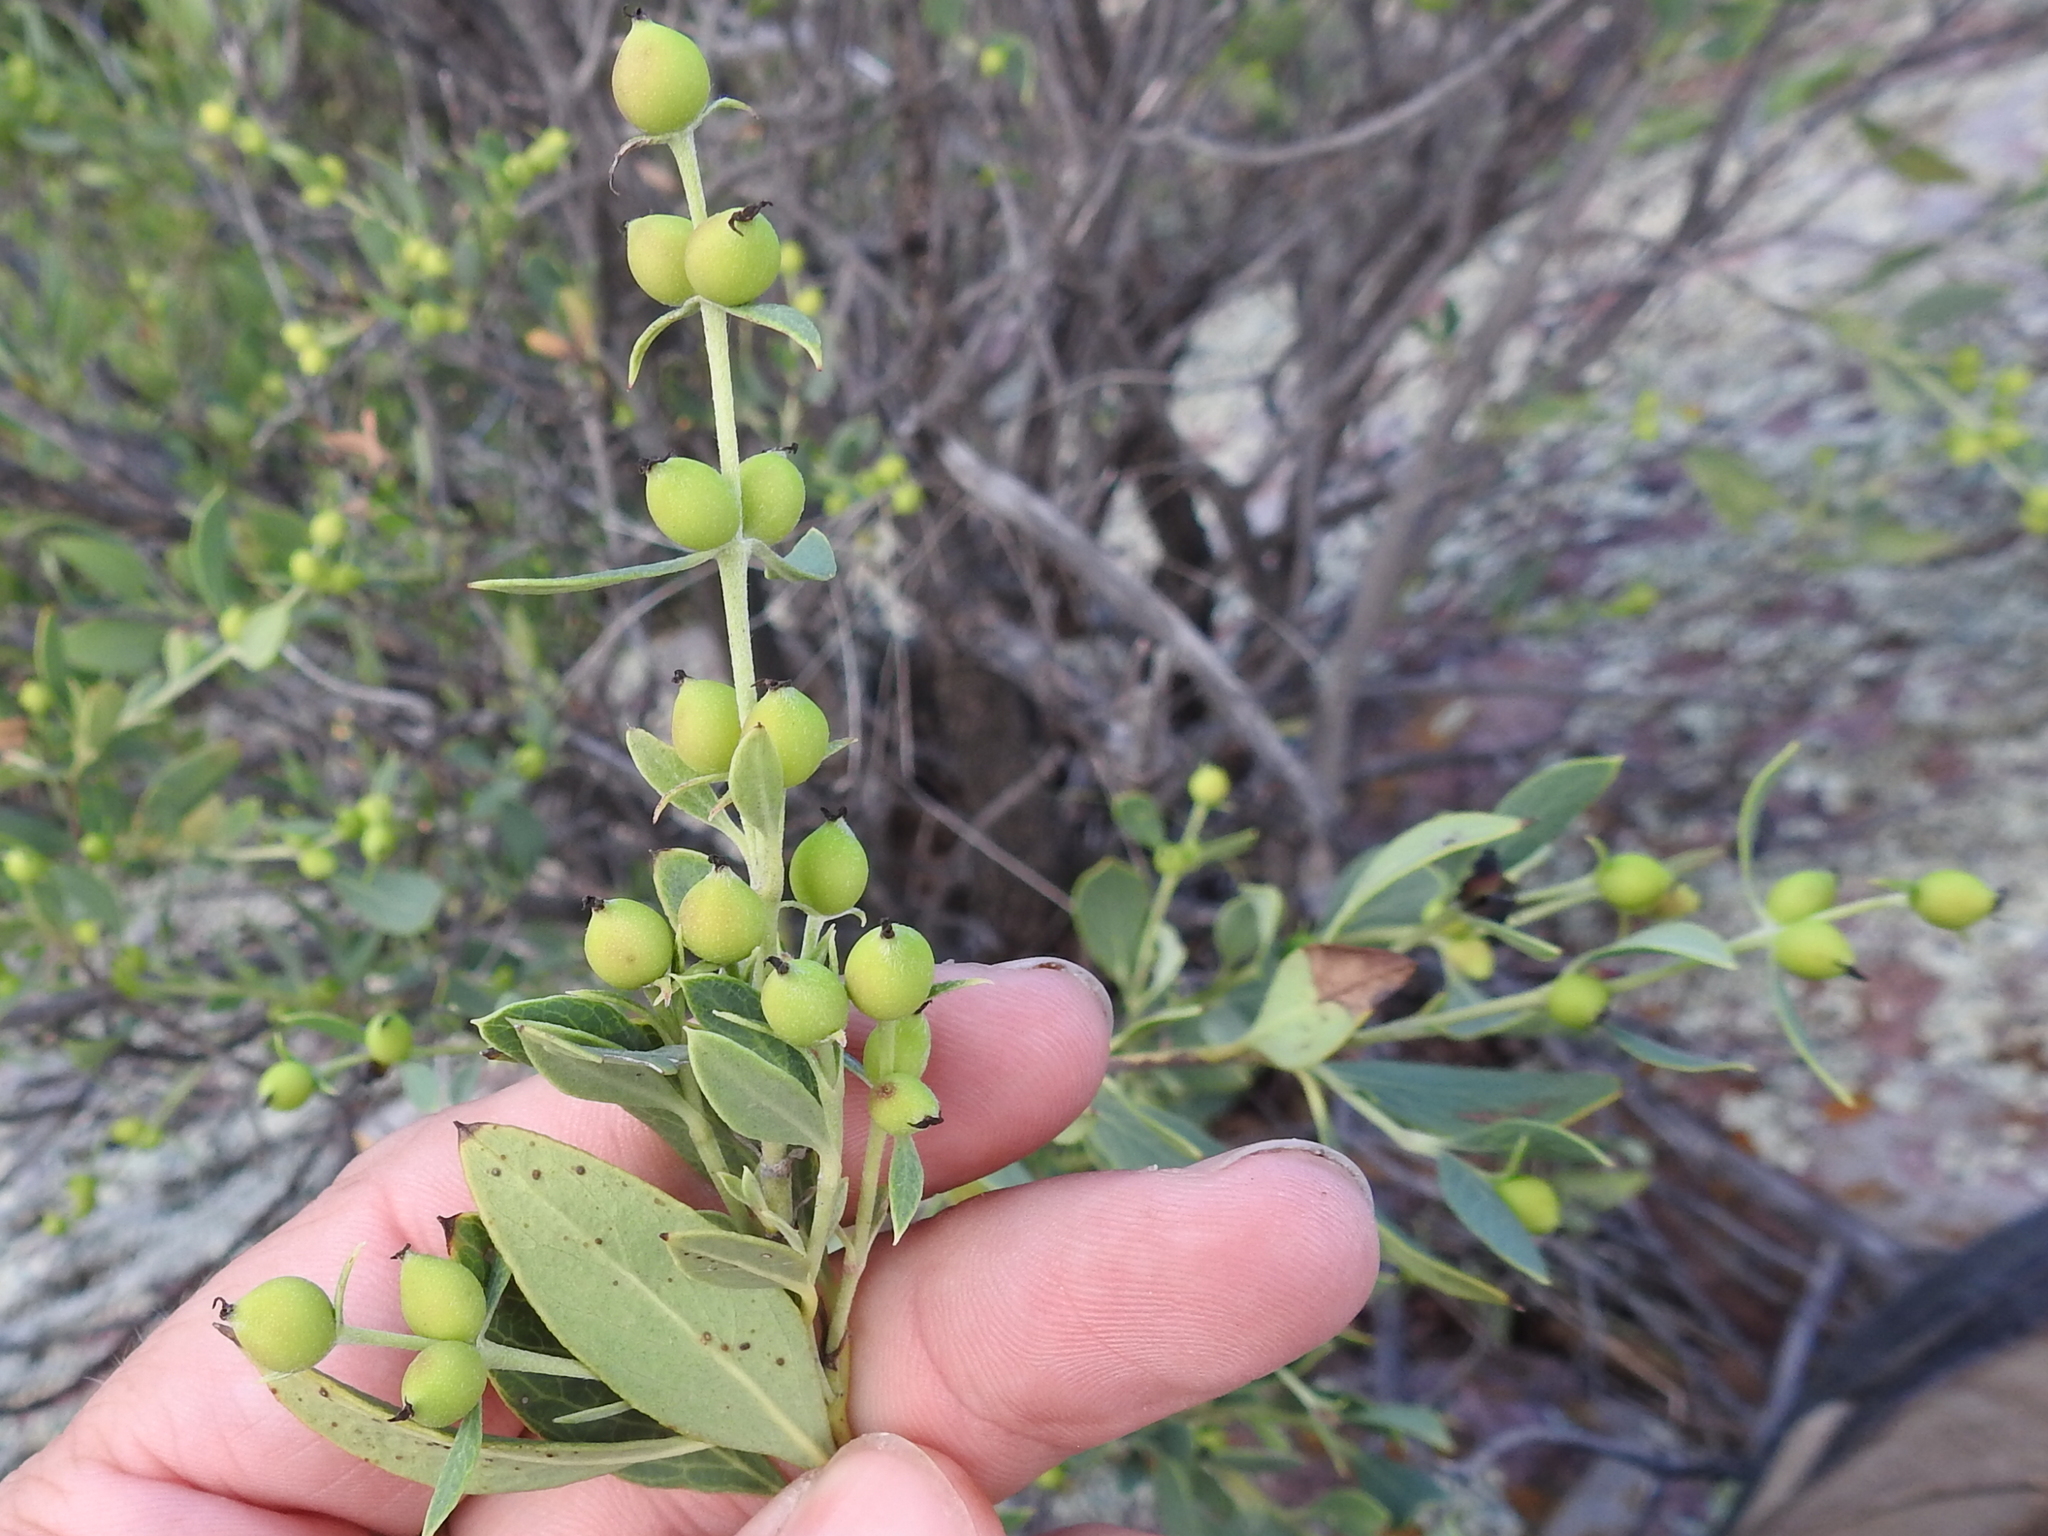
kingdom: Plantae
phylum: Tracheophyta
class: Magnoliopsida
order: Garryales
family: Garryaceae
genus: Garrya
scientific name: Garrya wrightii
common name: Wright's silktassel
